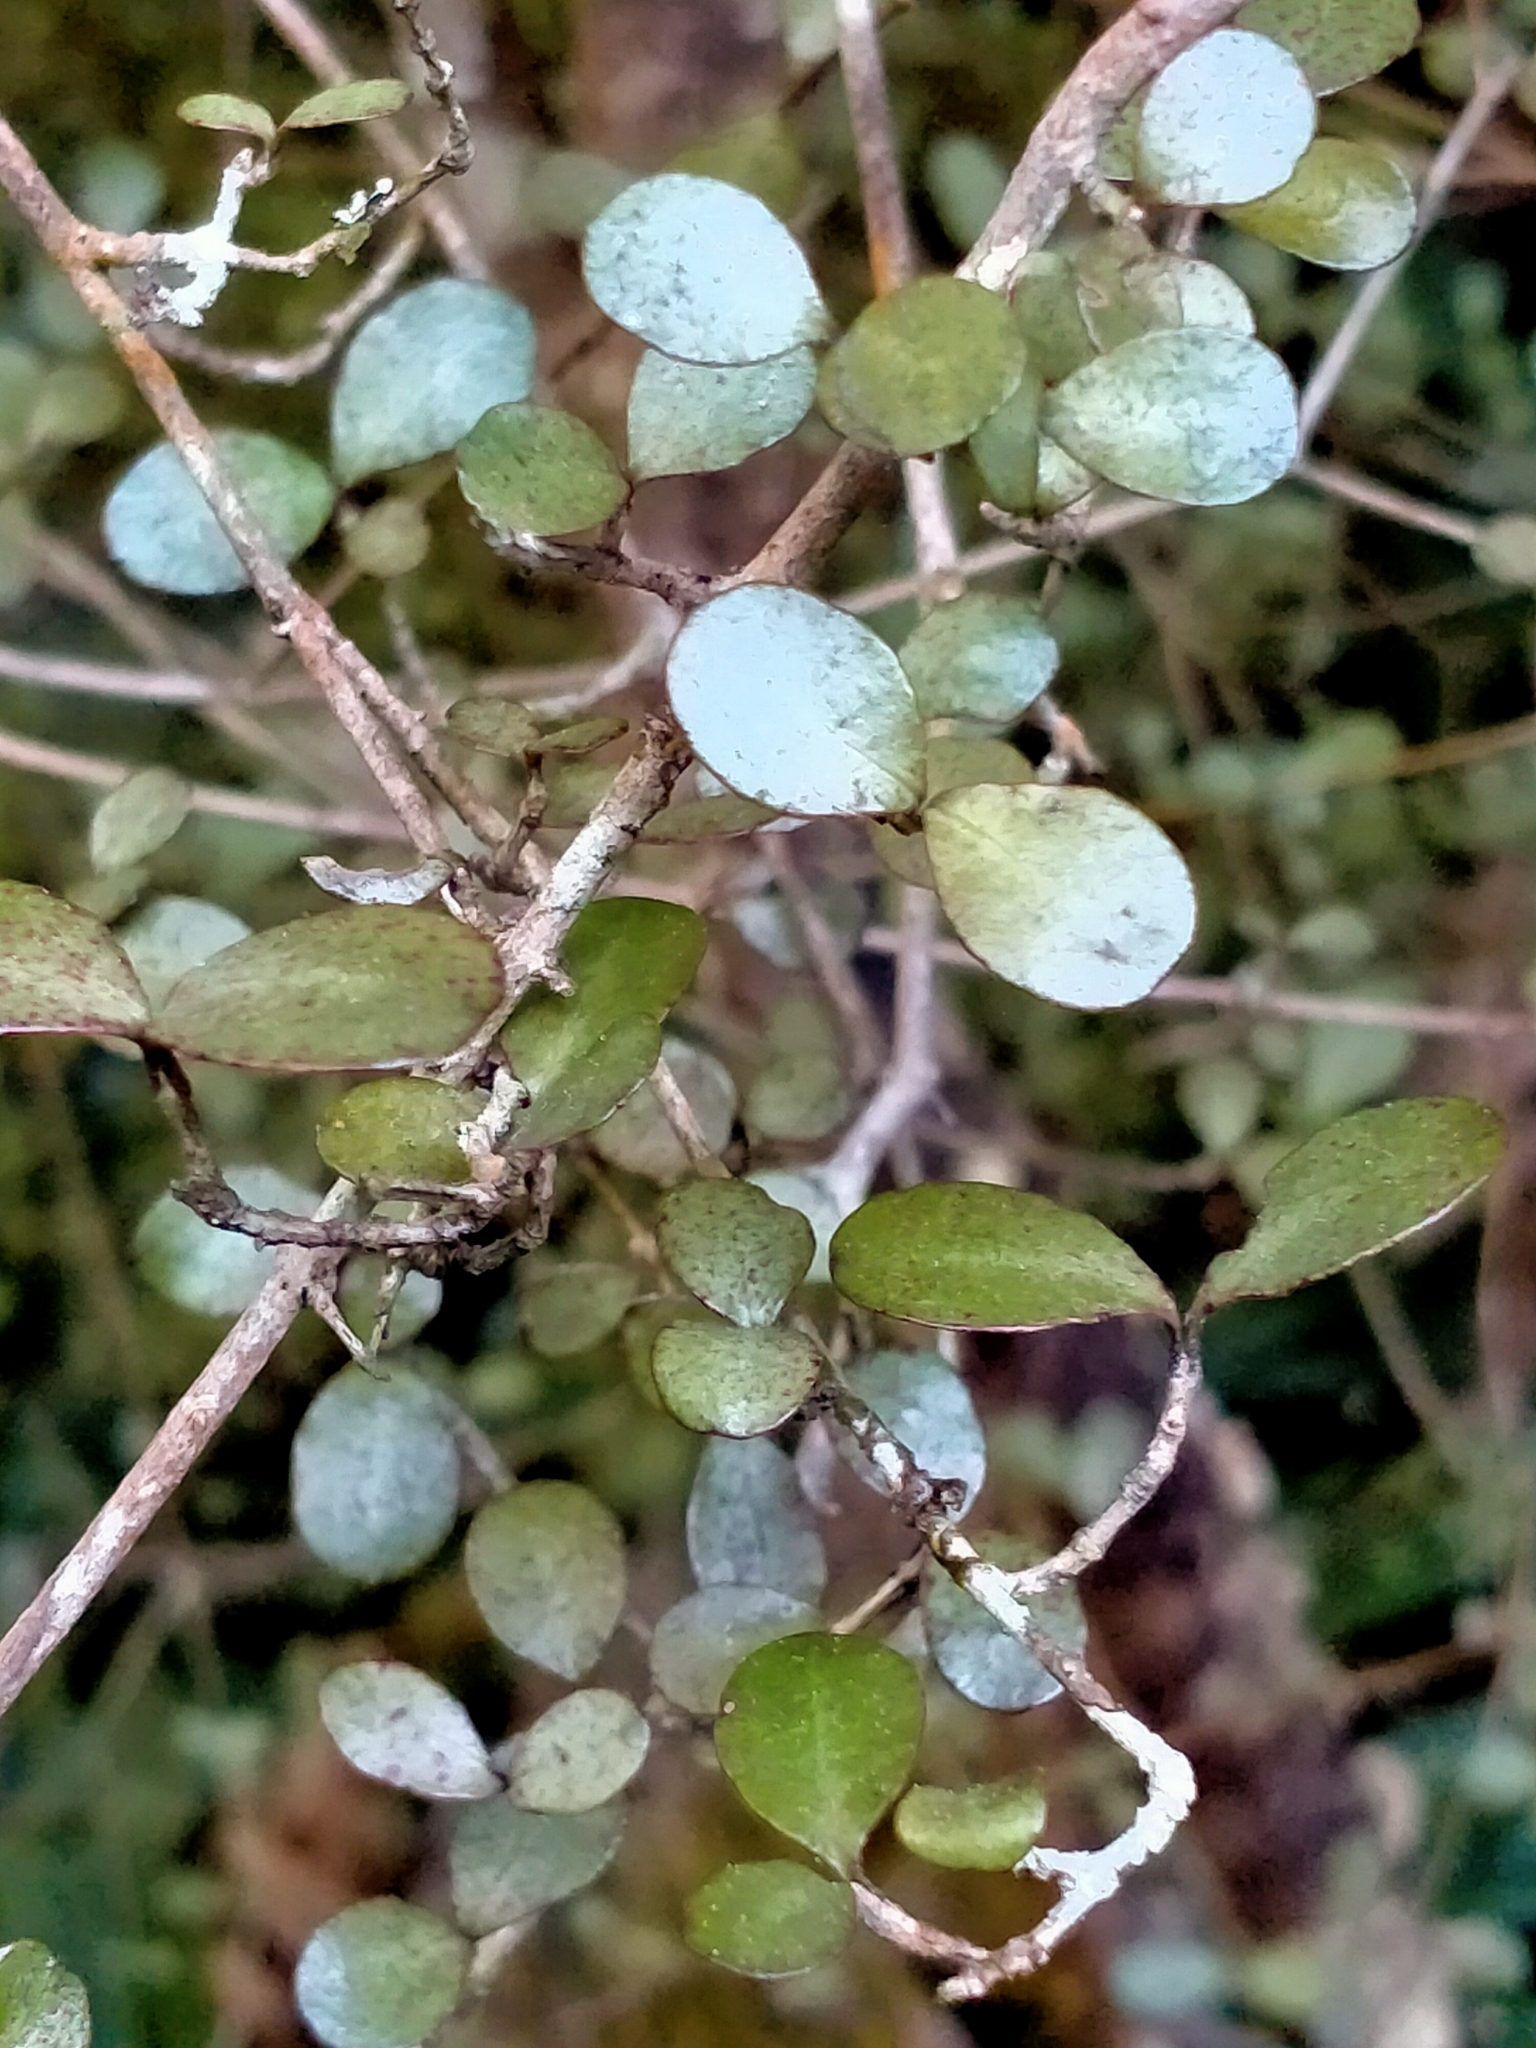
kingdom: Plantae
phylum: Tracheophyta
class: Magnoliopsida
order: Myrtales
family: Myrtaceae
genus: Neomyrtus
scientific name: Neomyrtus pedunculata
